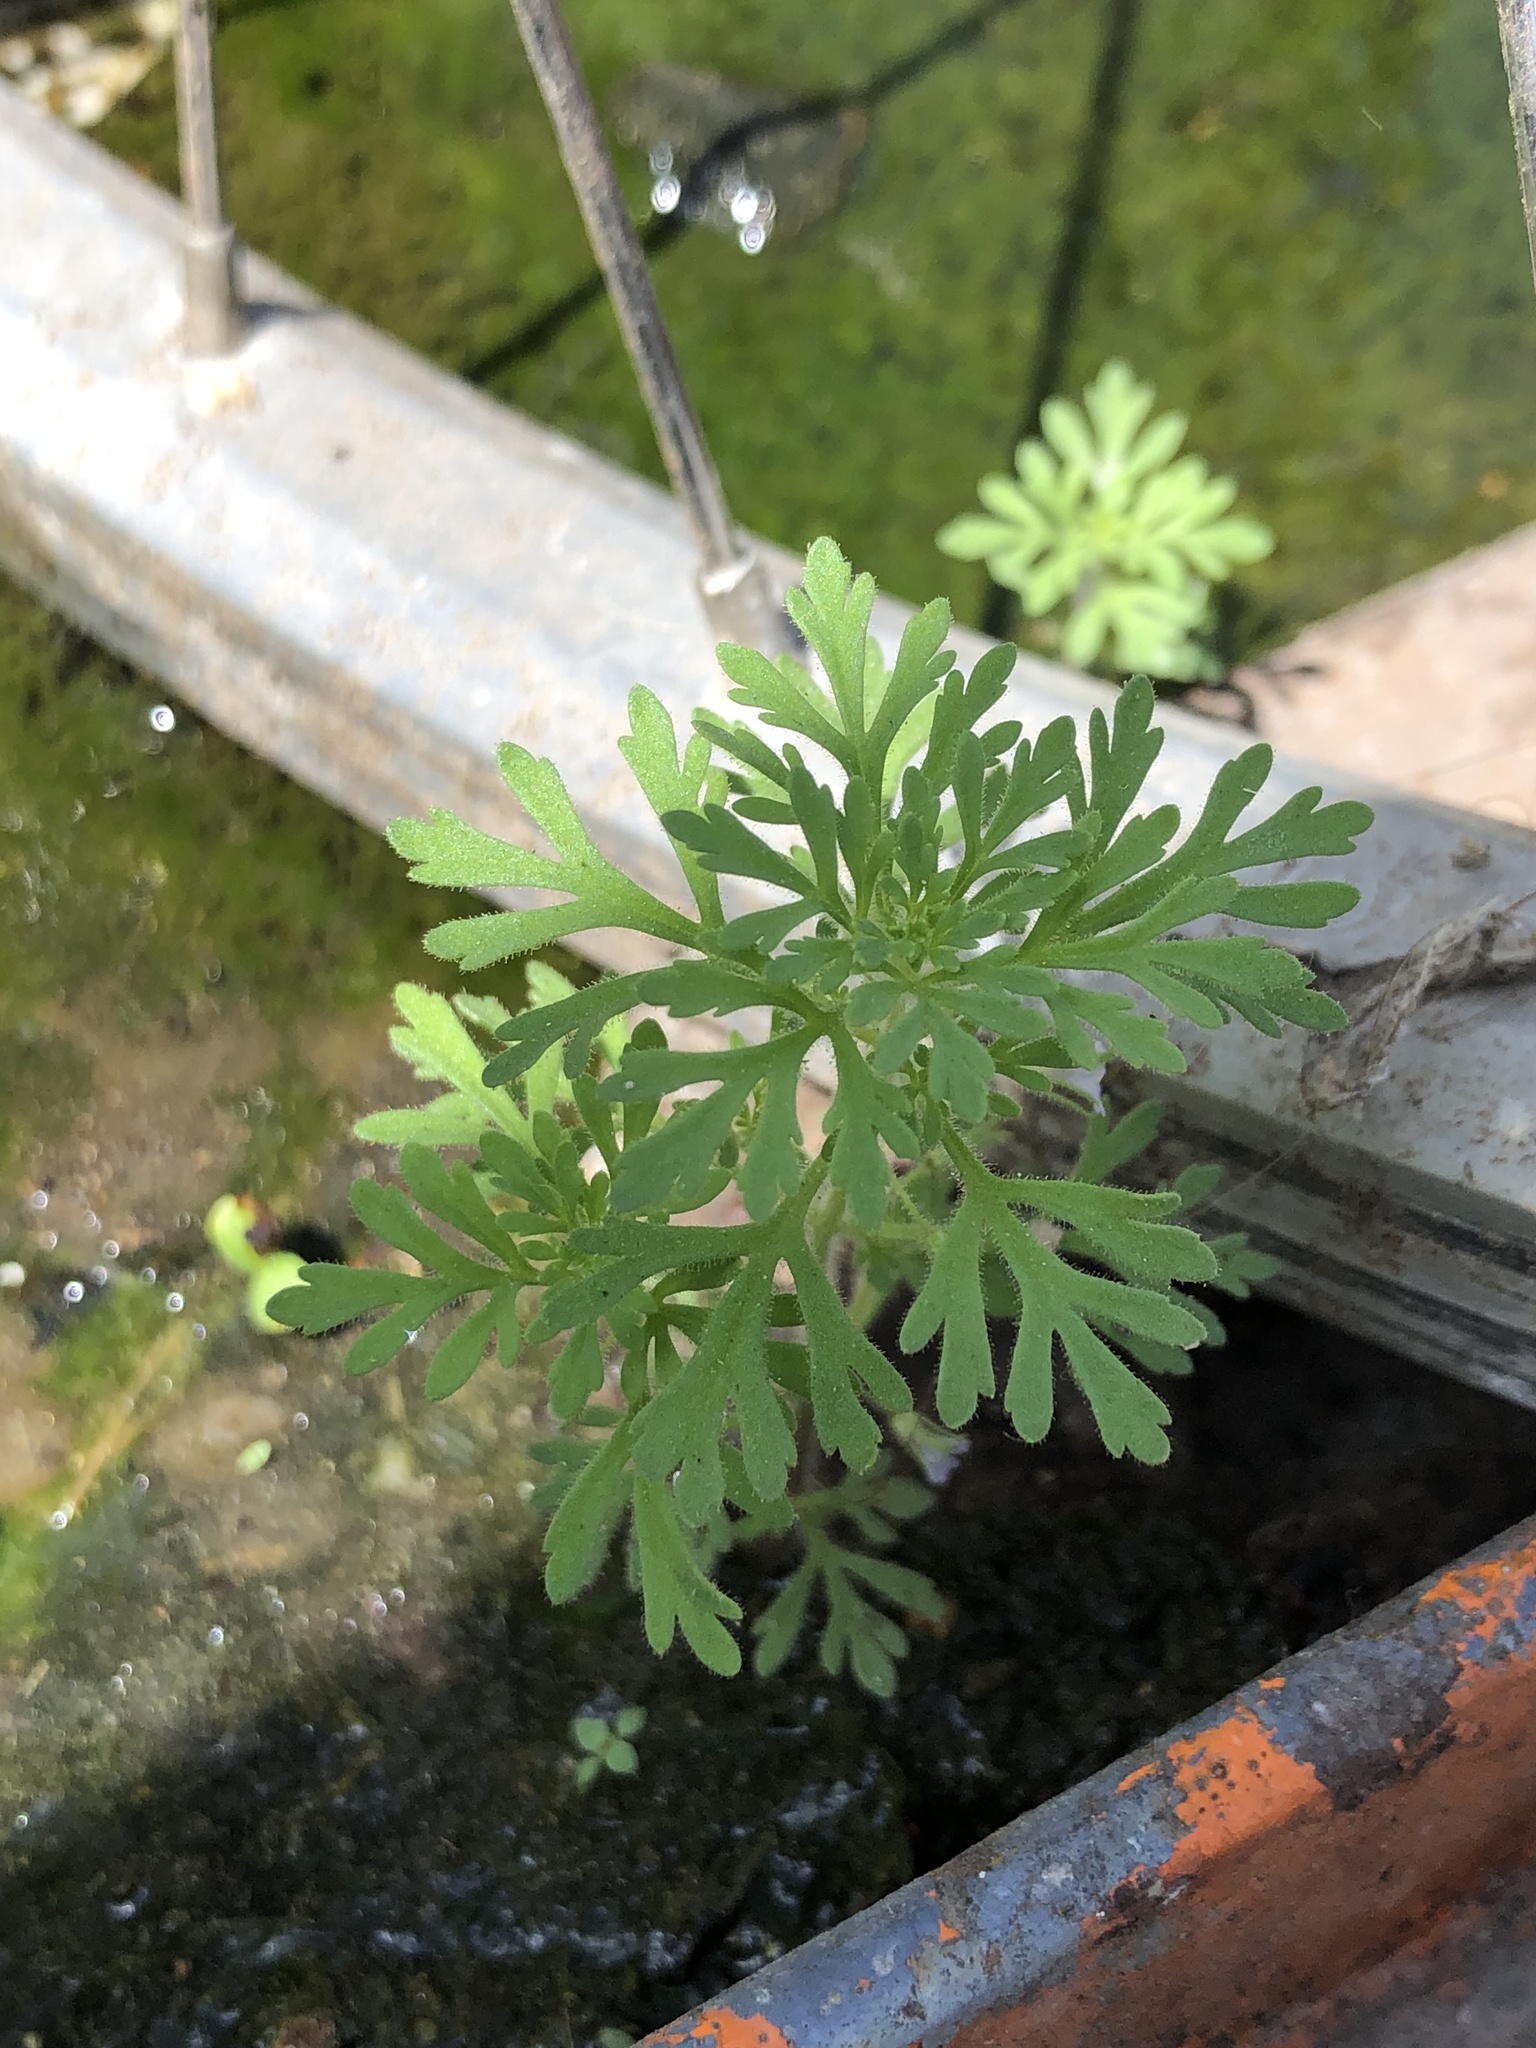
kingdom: Plantae
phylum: Tracheophyta
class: Magnoliopsida
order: Lamiales
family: Plantaginaceae
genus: Leucospora
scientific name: Leucospora multifida
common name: Narrow-leaf paleseed
